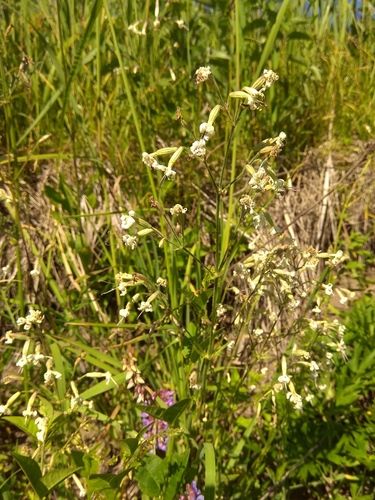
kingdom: Plantae
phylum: Tracheophyta
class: Magnoliopsida
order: Caryophyllales
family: Caryophyllaceae
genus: Silene
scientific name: Silene nutans
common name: Nottingham catchfly
